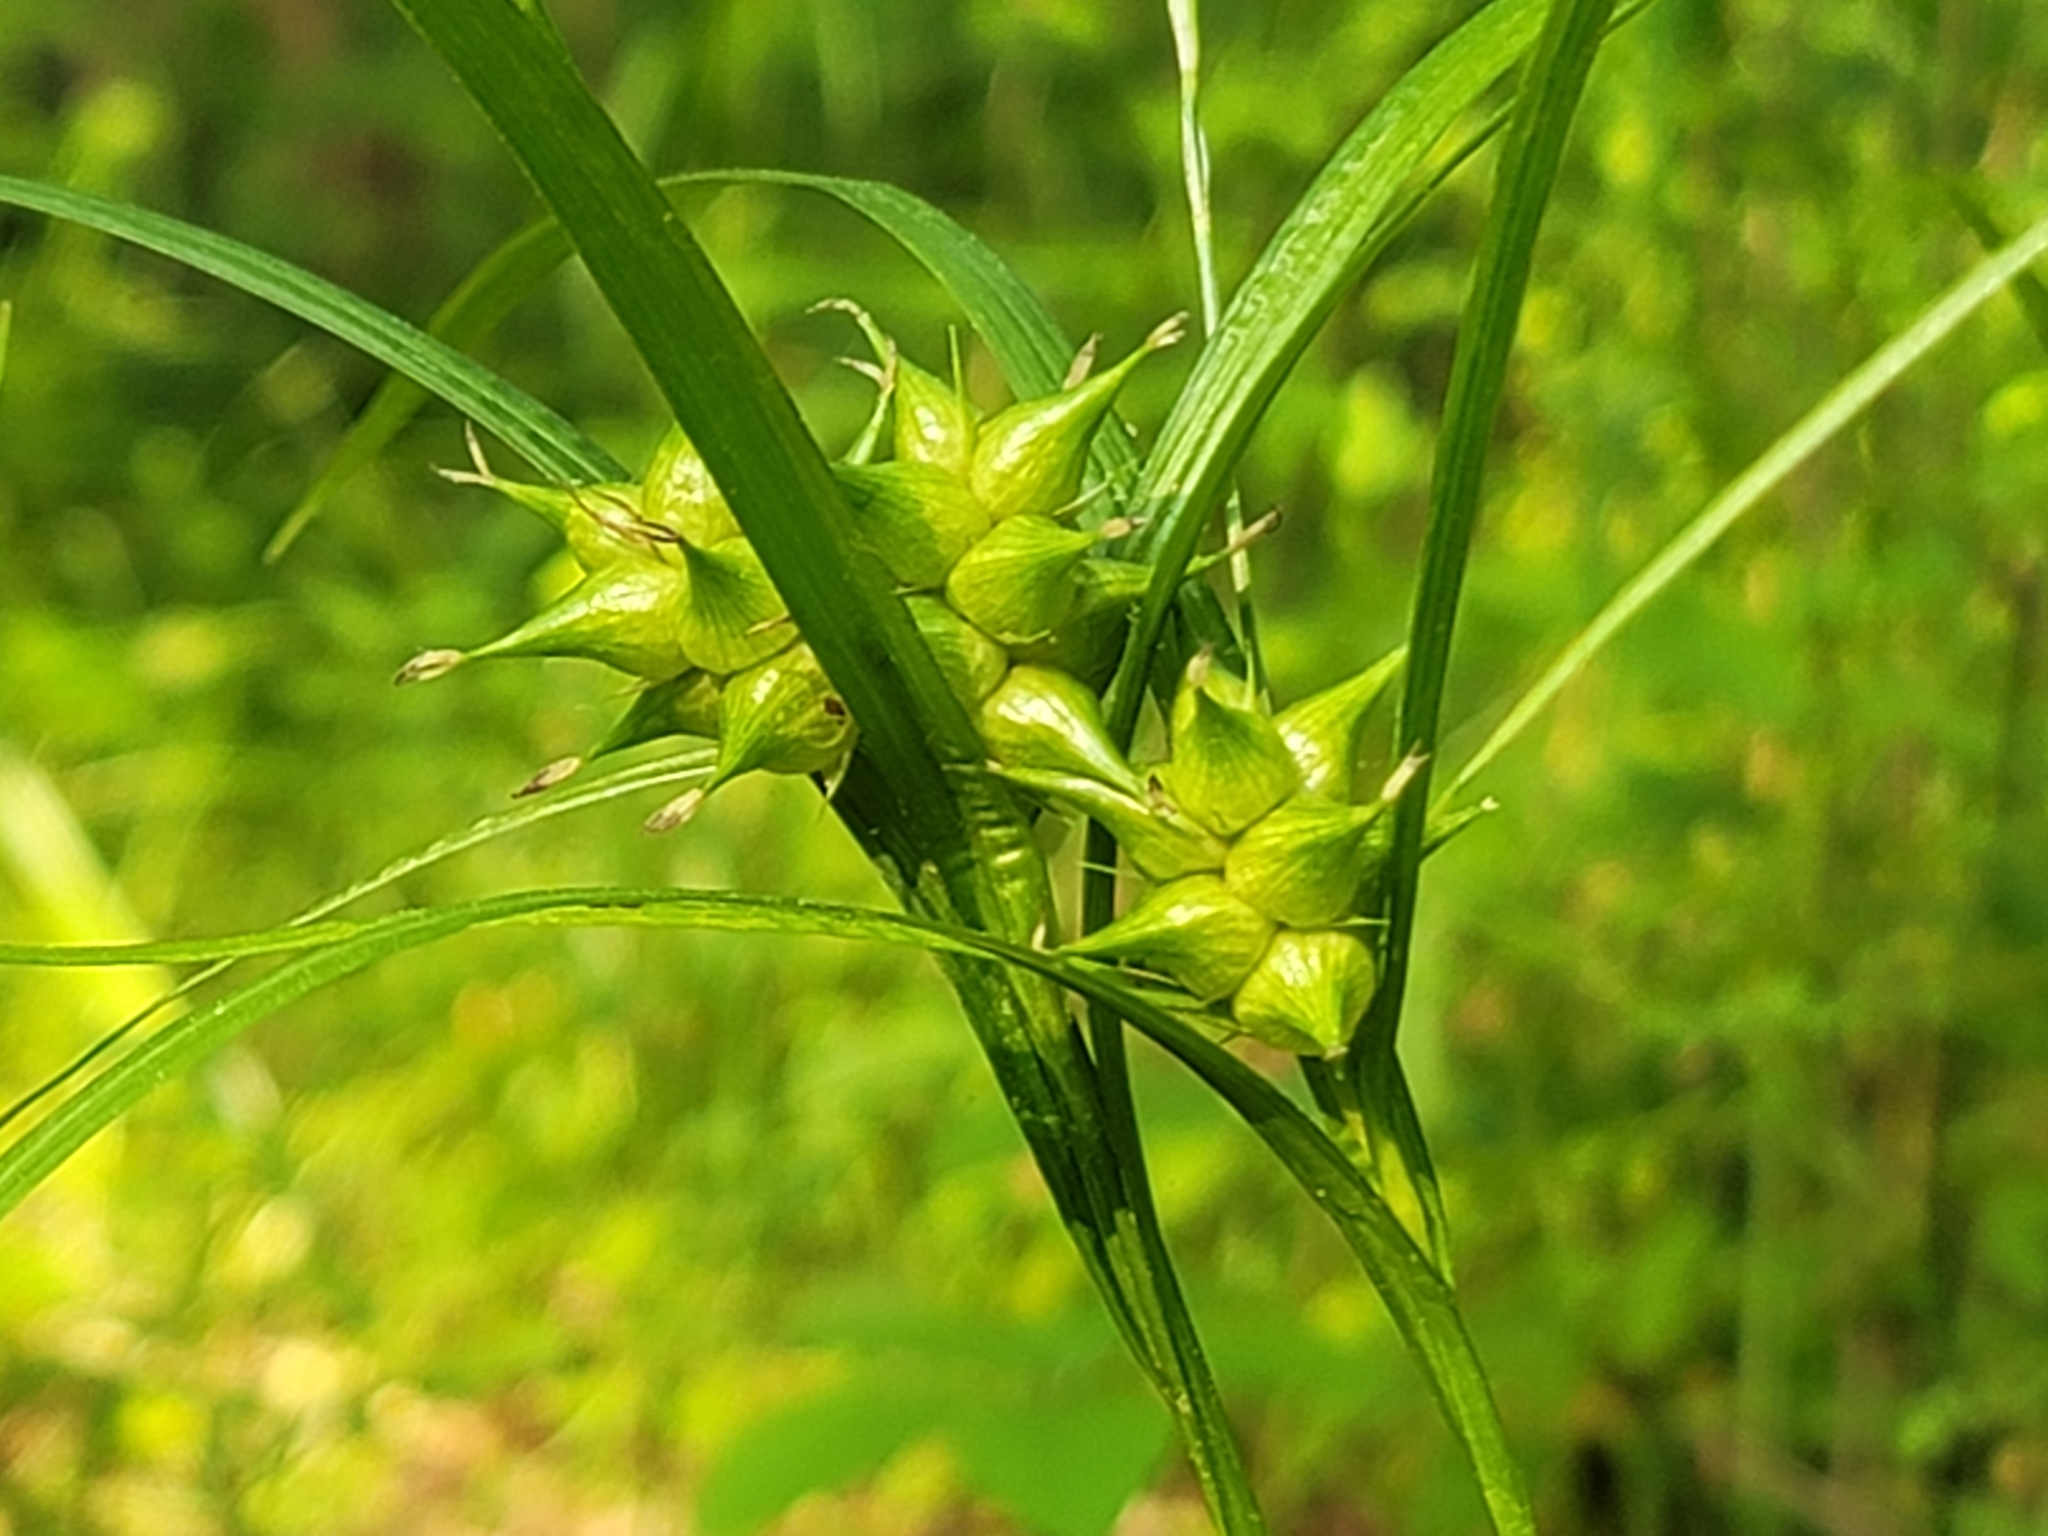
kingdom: Plantae
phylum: Tracheophyta
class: Liliopsida
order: Poales
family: Cyperaceae
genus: Carex
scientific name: Carex intumescens
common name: Greater bladder sedge
